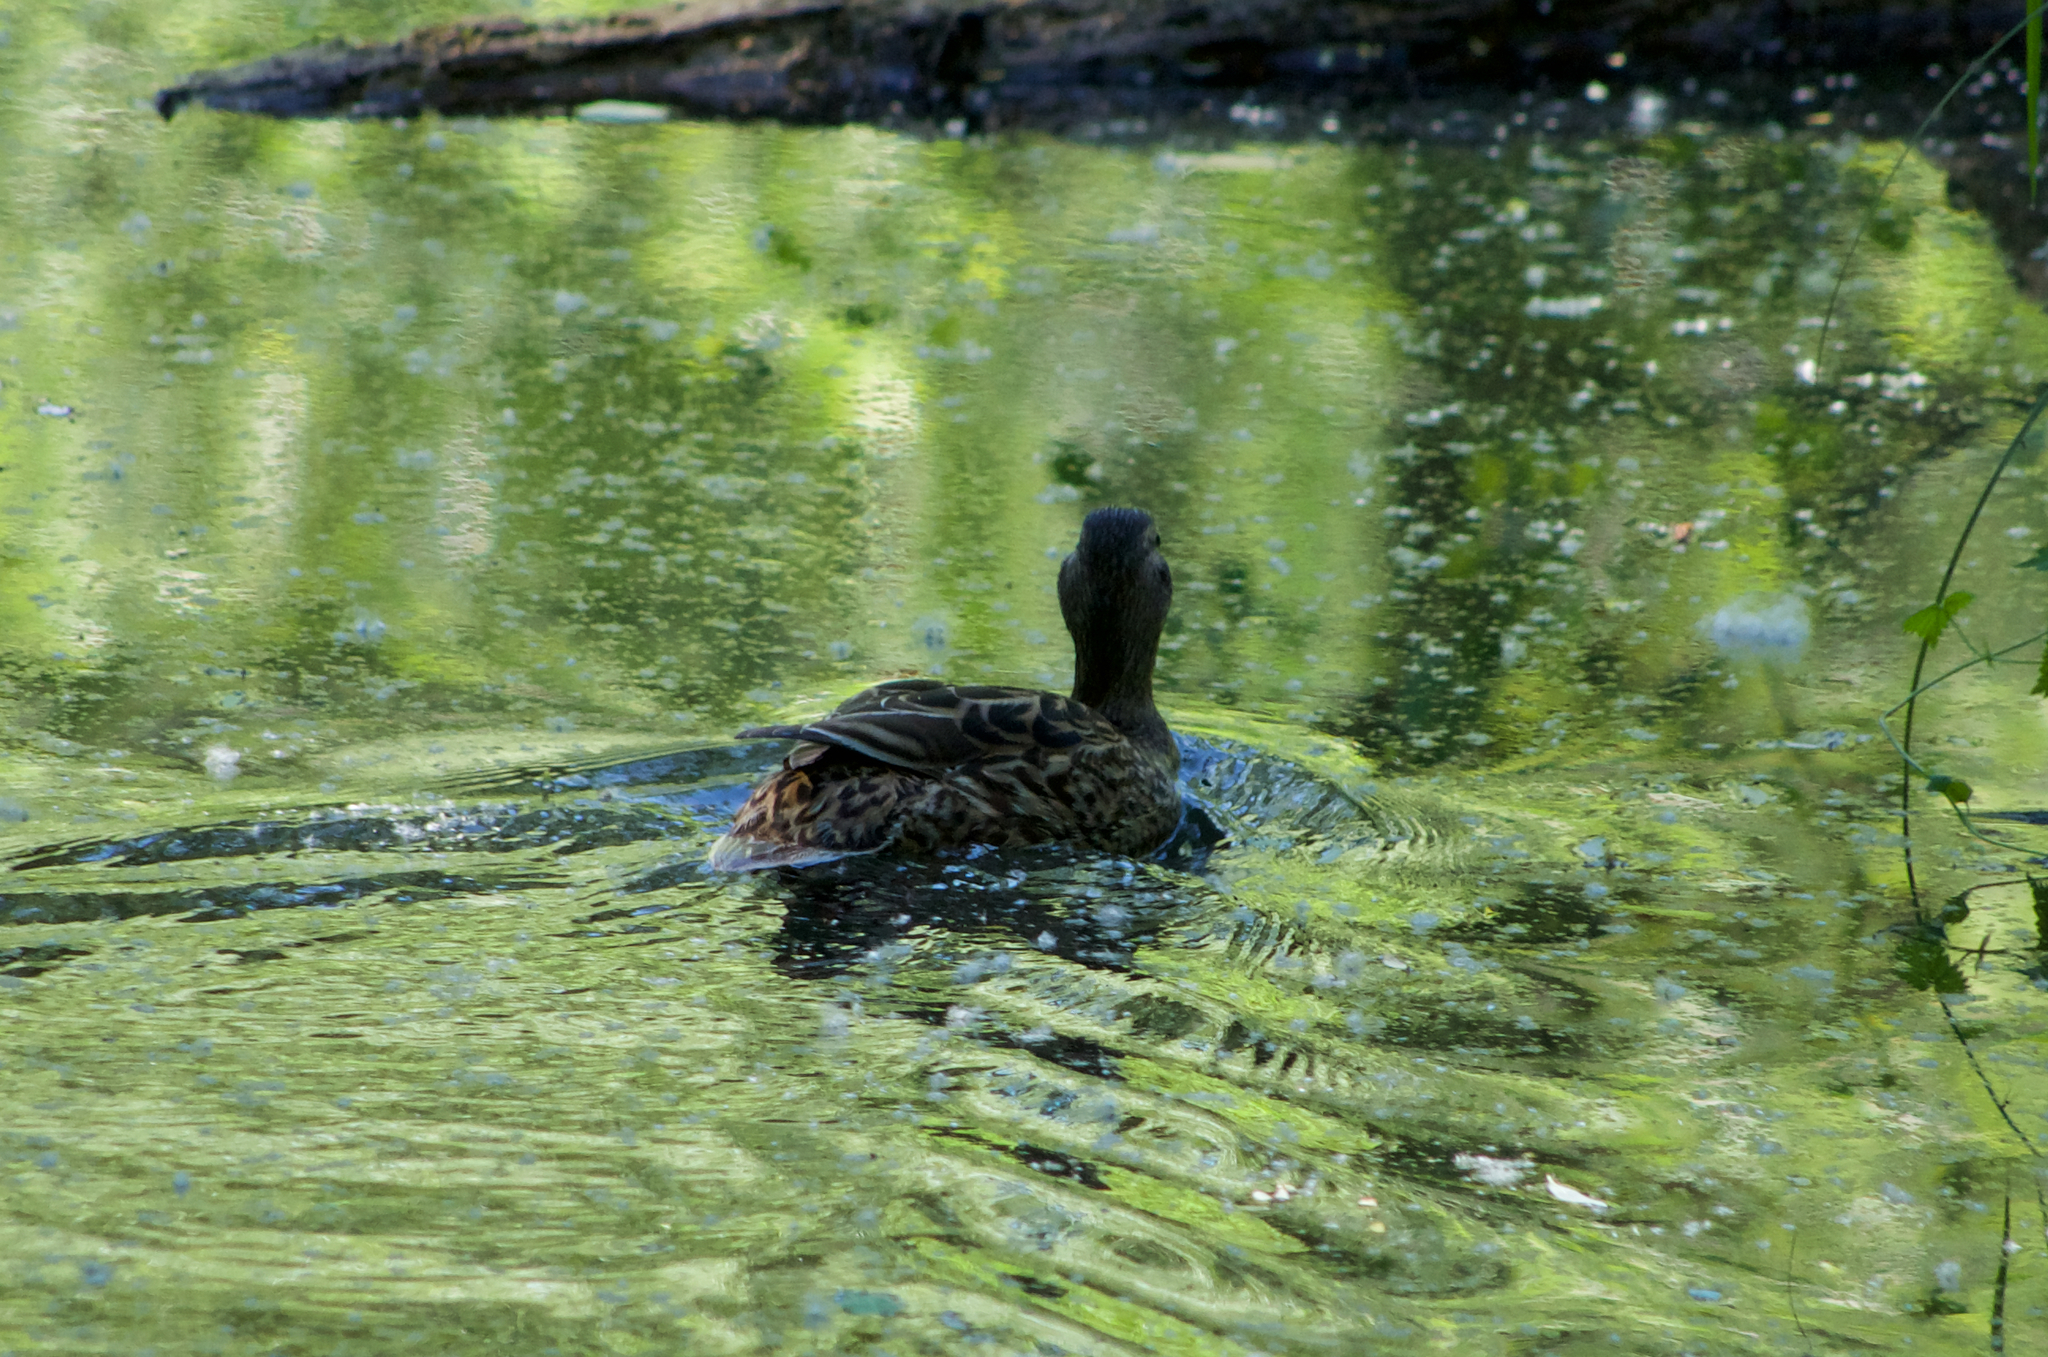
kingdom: Animalia
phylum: Chordata
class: Aves
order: Anseriformes
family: Anatidae
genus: Anas
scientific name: Anas platyrhynchos
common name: Mallard
